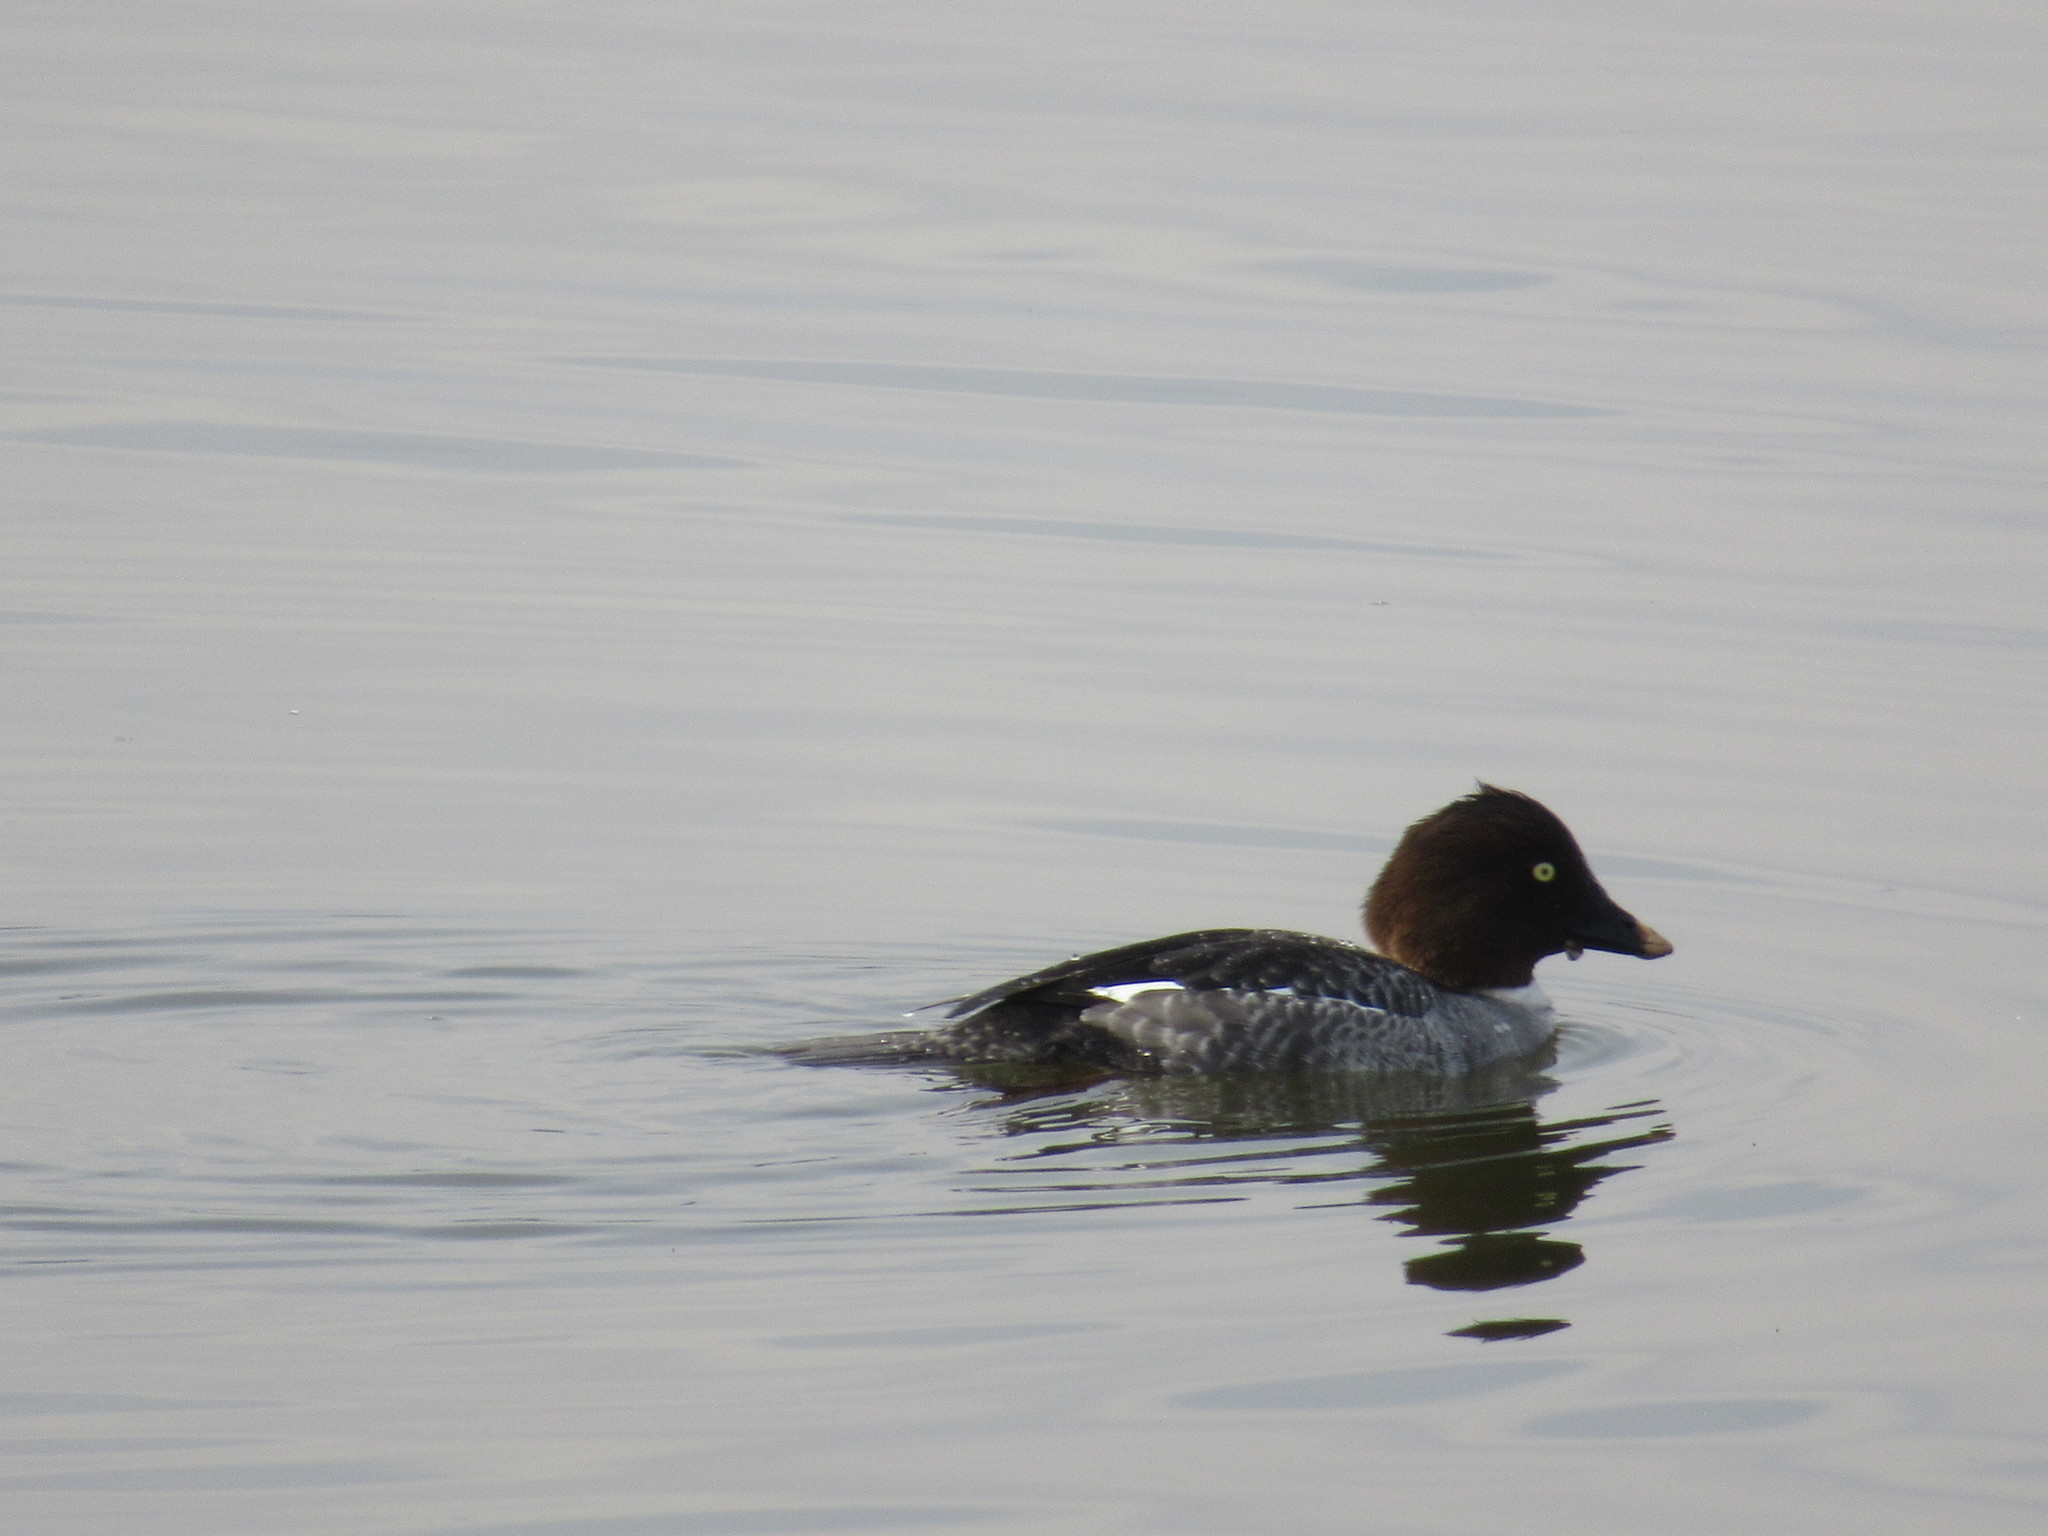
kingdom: Animalia
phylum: Chordata
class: Aves
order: Anseriformes
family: Anatidae
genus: Bucephala
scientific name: Bucephala clangula
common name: Common goldeneye
